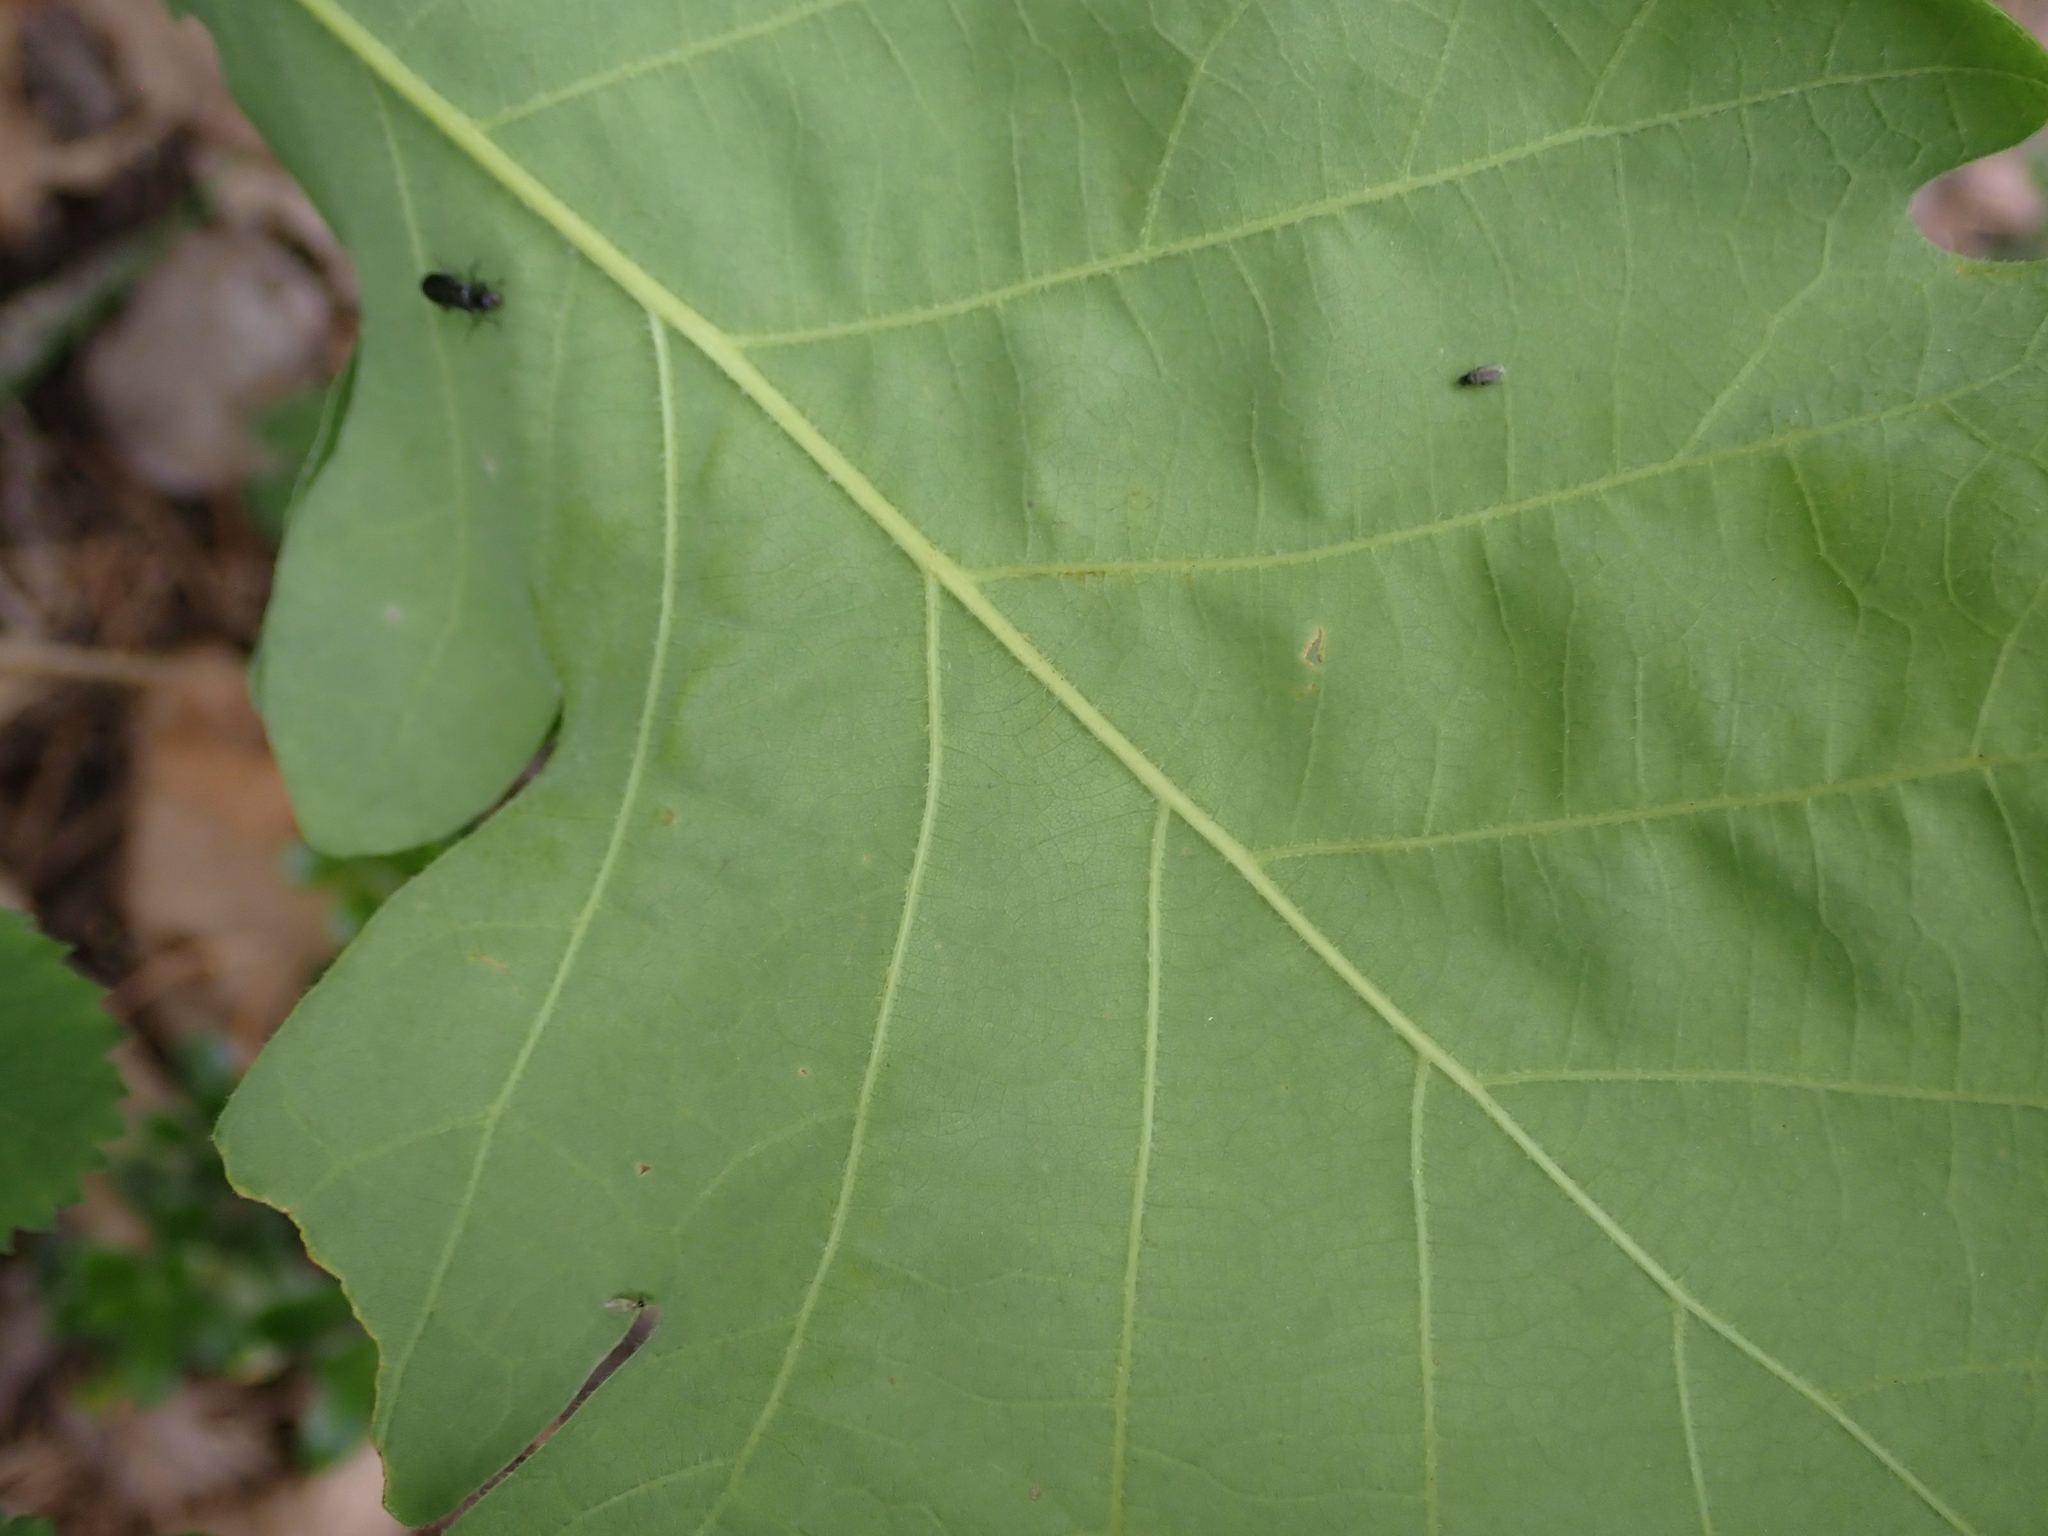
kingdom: Plantae
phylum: Tracheophyta
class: Magnoliopsida
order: Fagales
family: Fagaceae
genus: Quercus
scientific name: Quercus macrocarpa
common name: Bur oak
